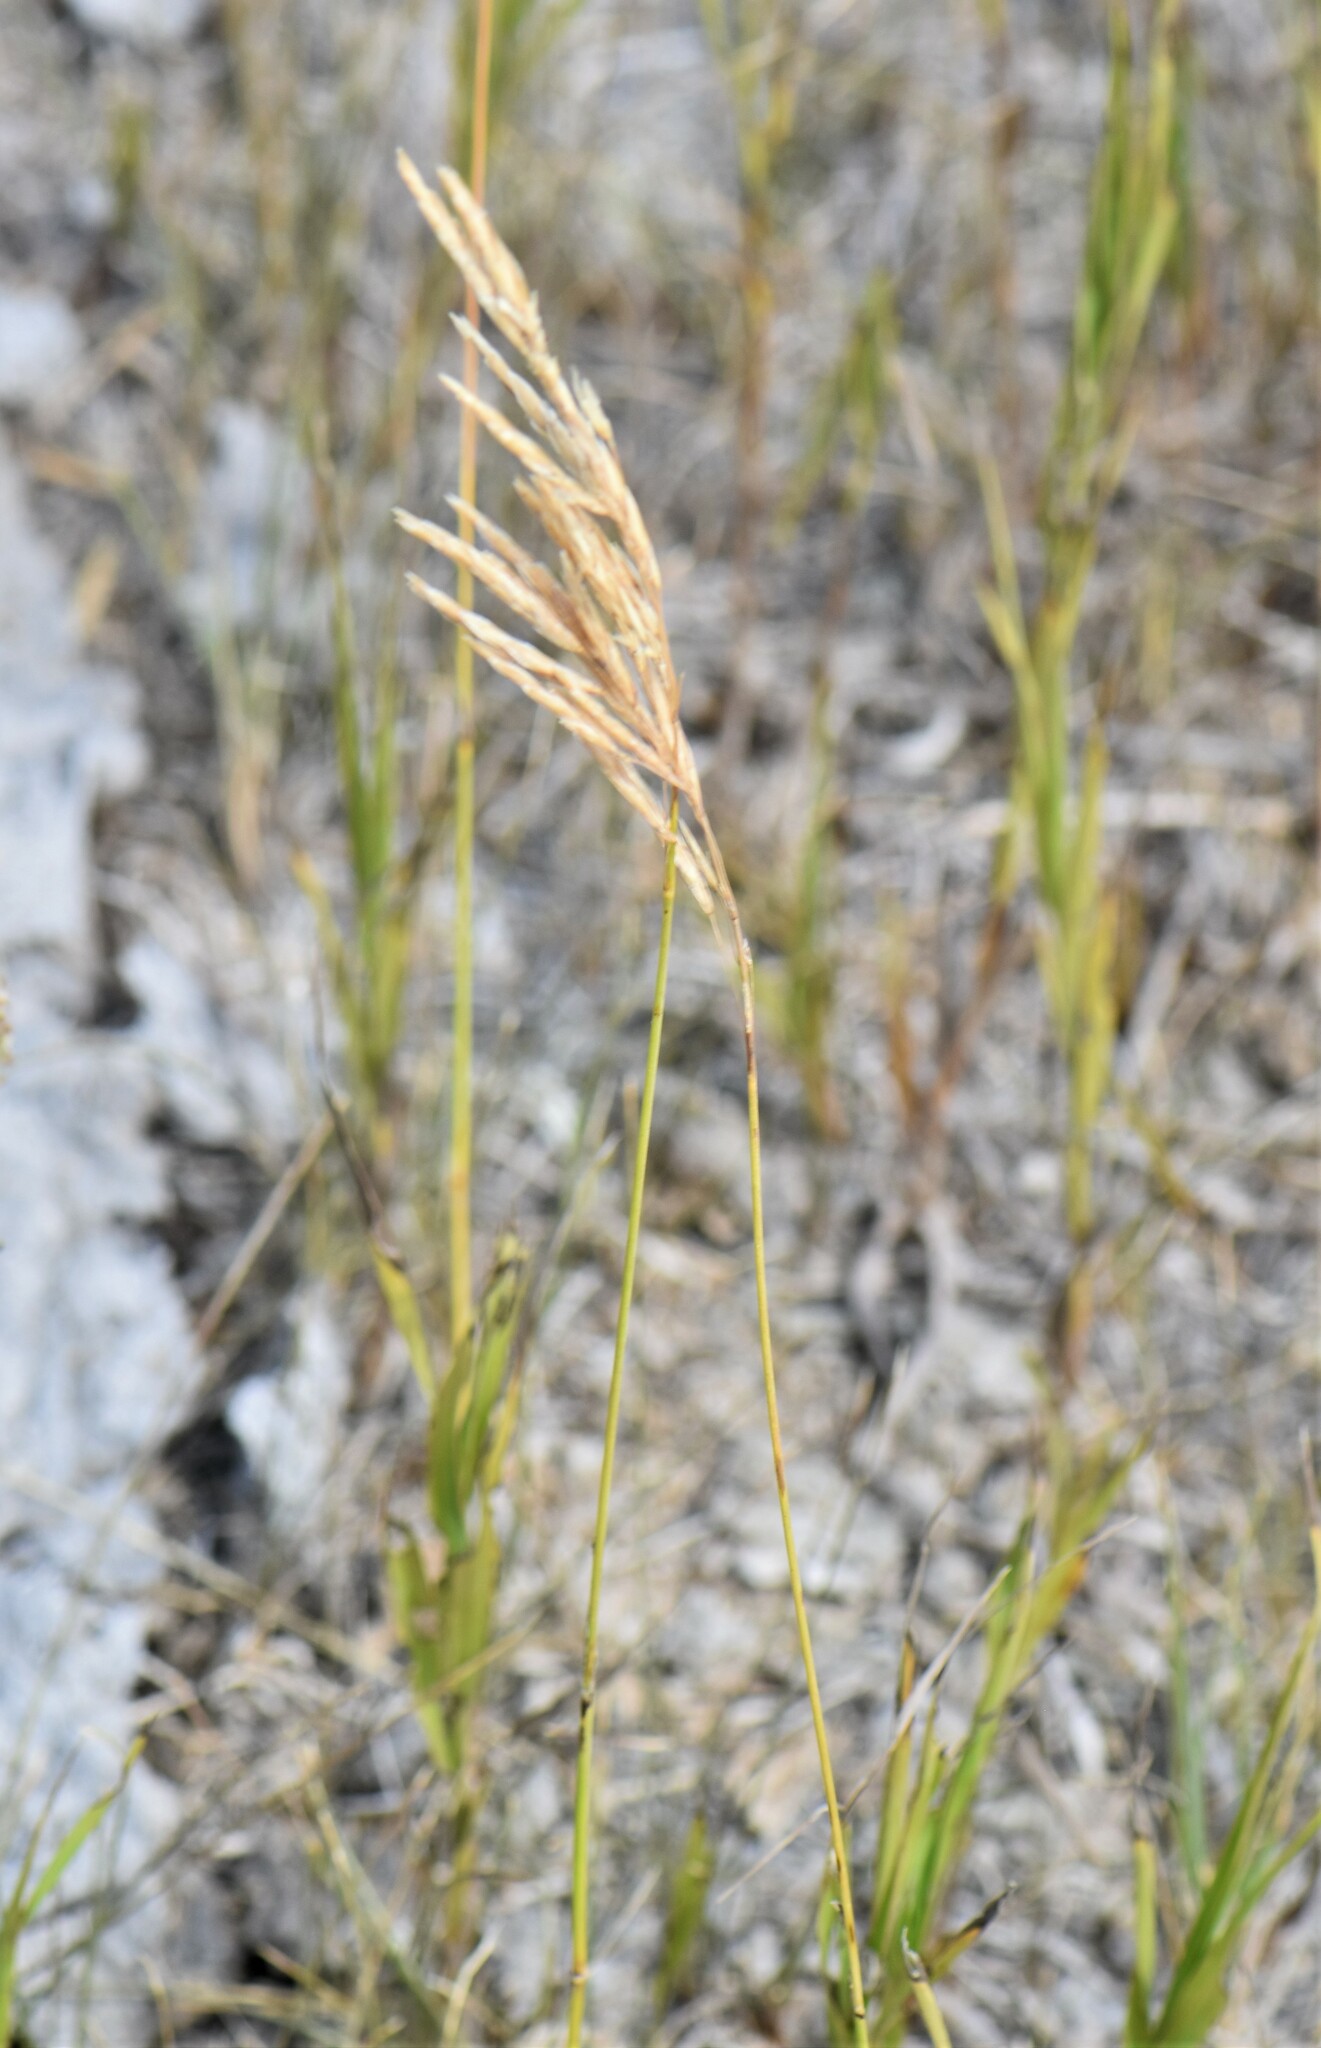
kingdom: Plantae
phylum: Tracheophyta
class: Liliopsida
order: Poales
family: Poaceae
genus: Bromus
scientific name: Bromus inermis
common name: Smooth brome
